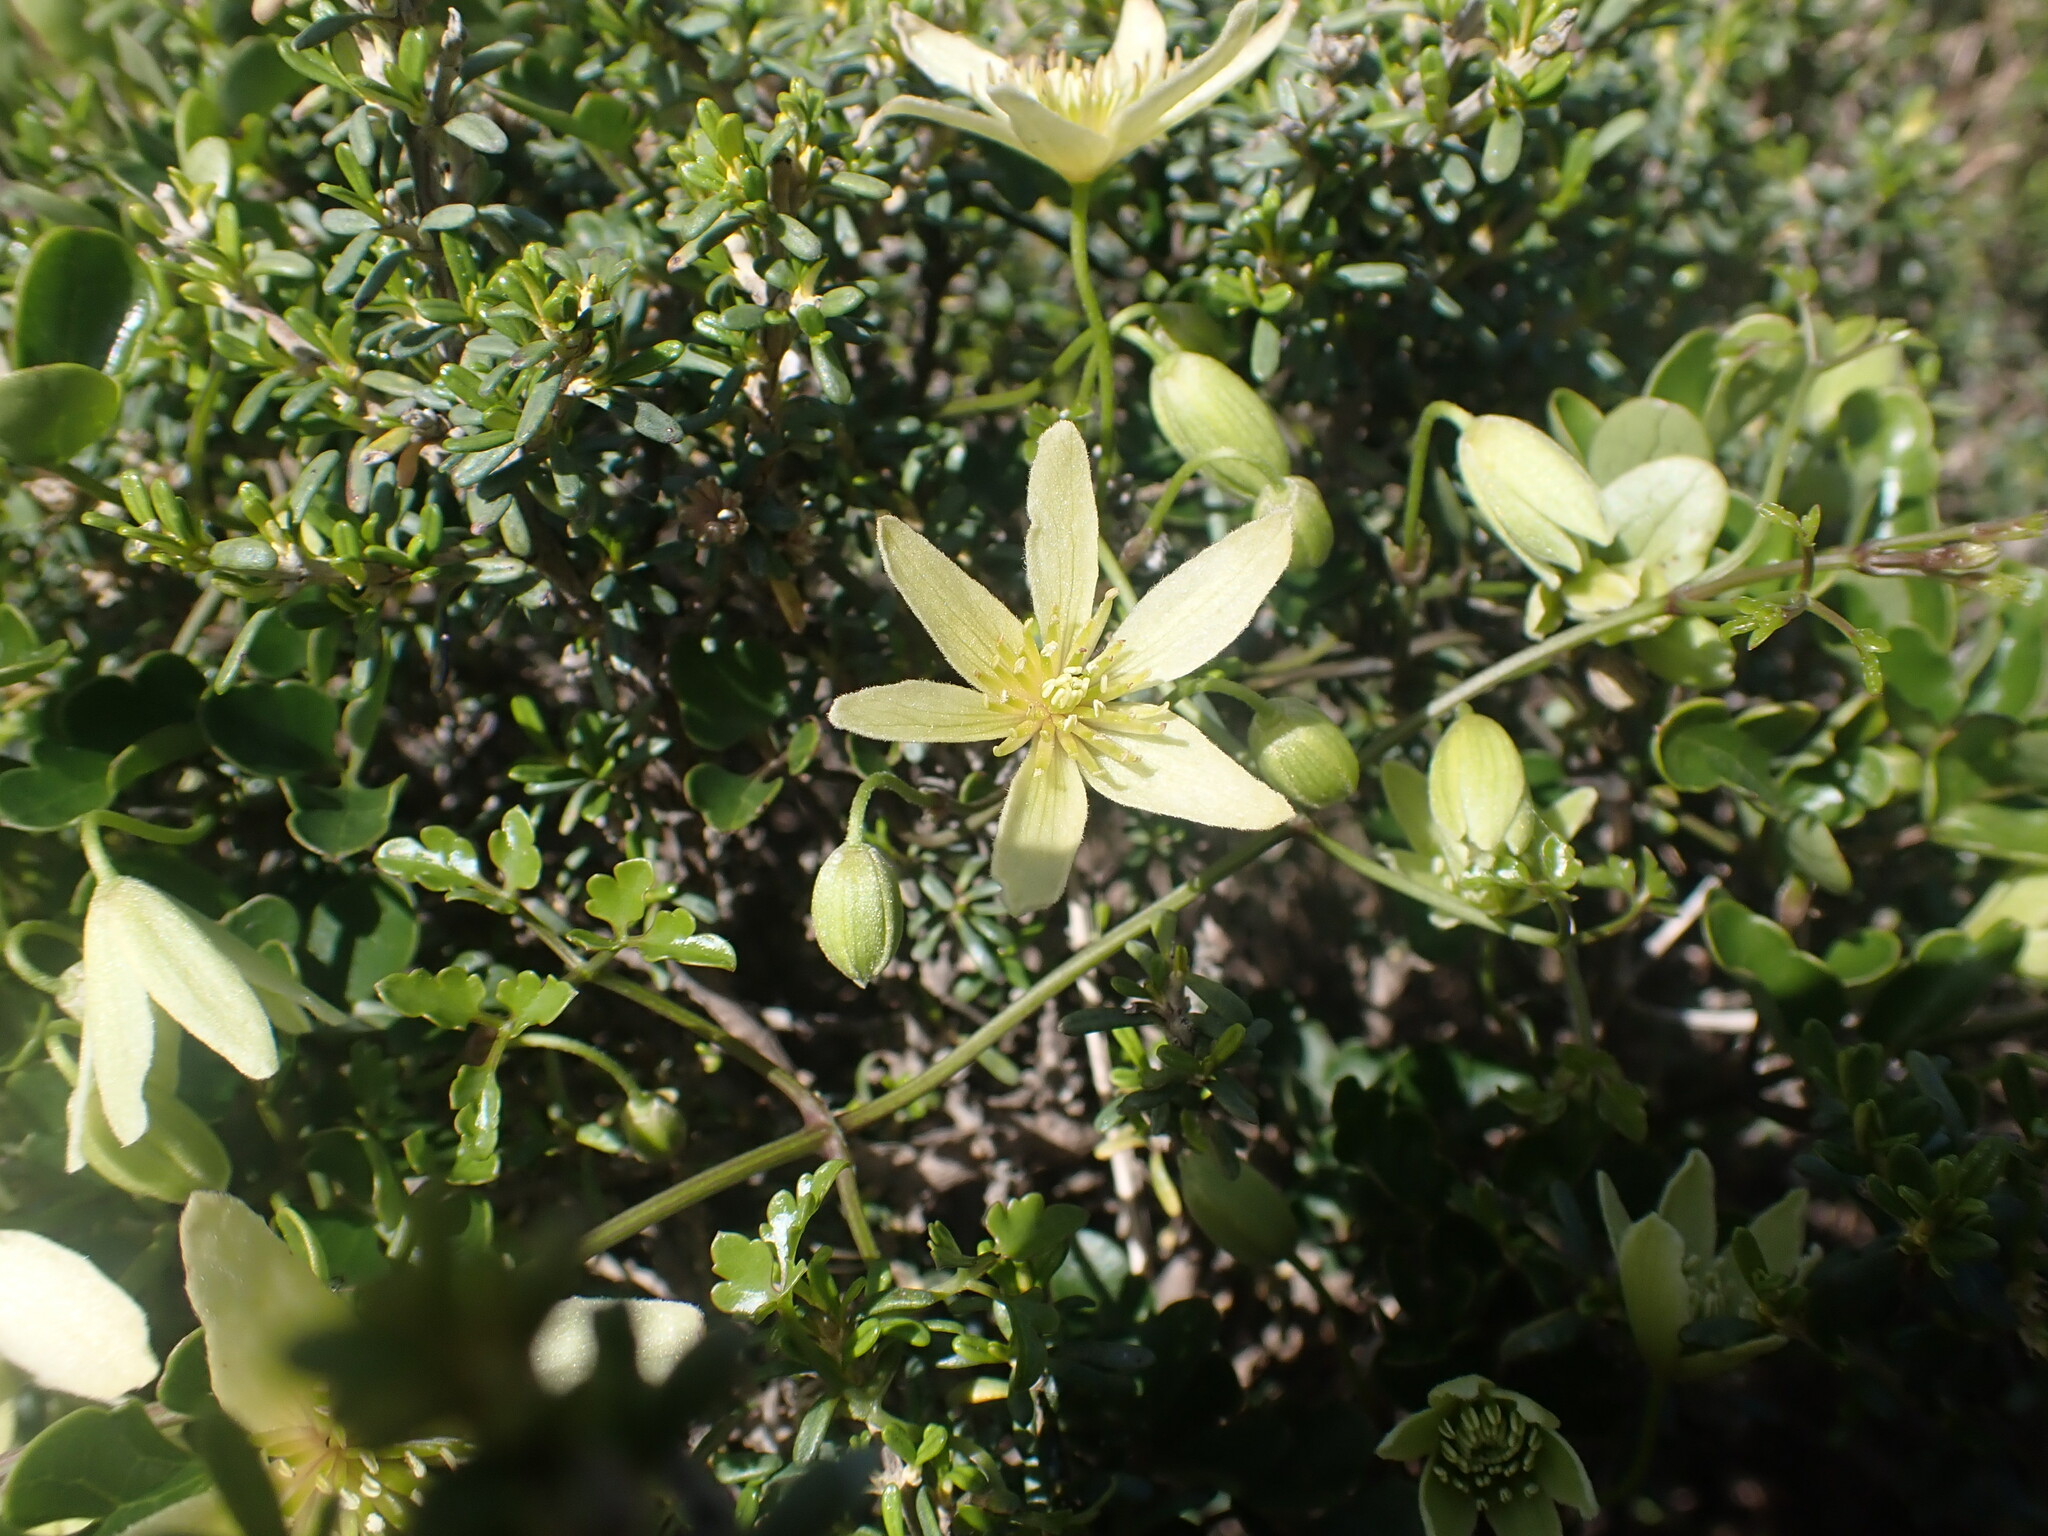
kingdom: Plantae
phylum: Tracheophyta
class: Magnoliopsida
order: Ranunculales
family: Ranunculaceae
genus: Clematis
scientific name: Clematis forsteri
